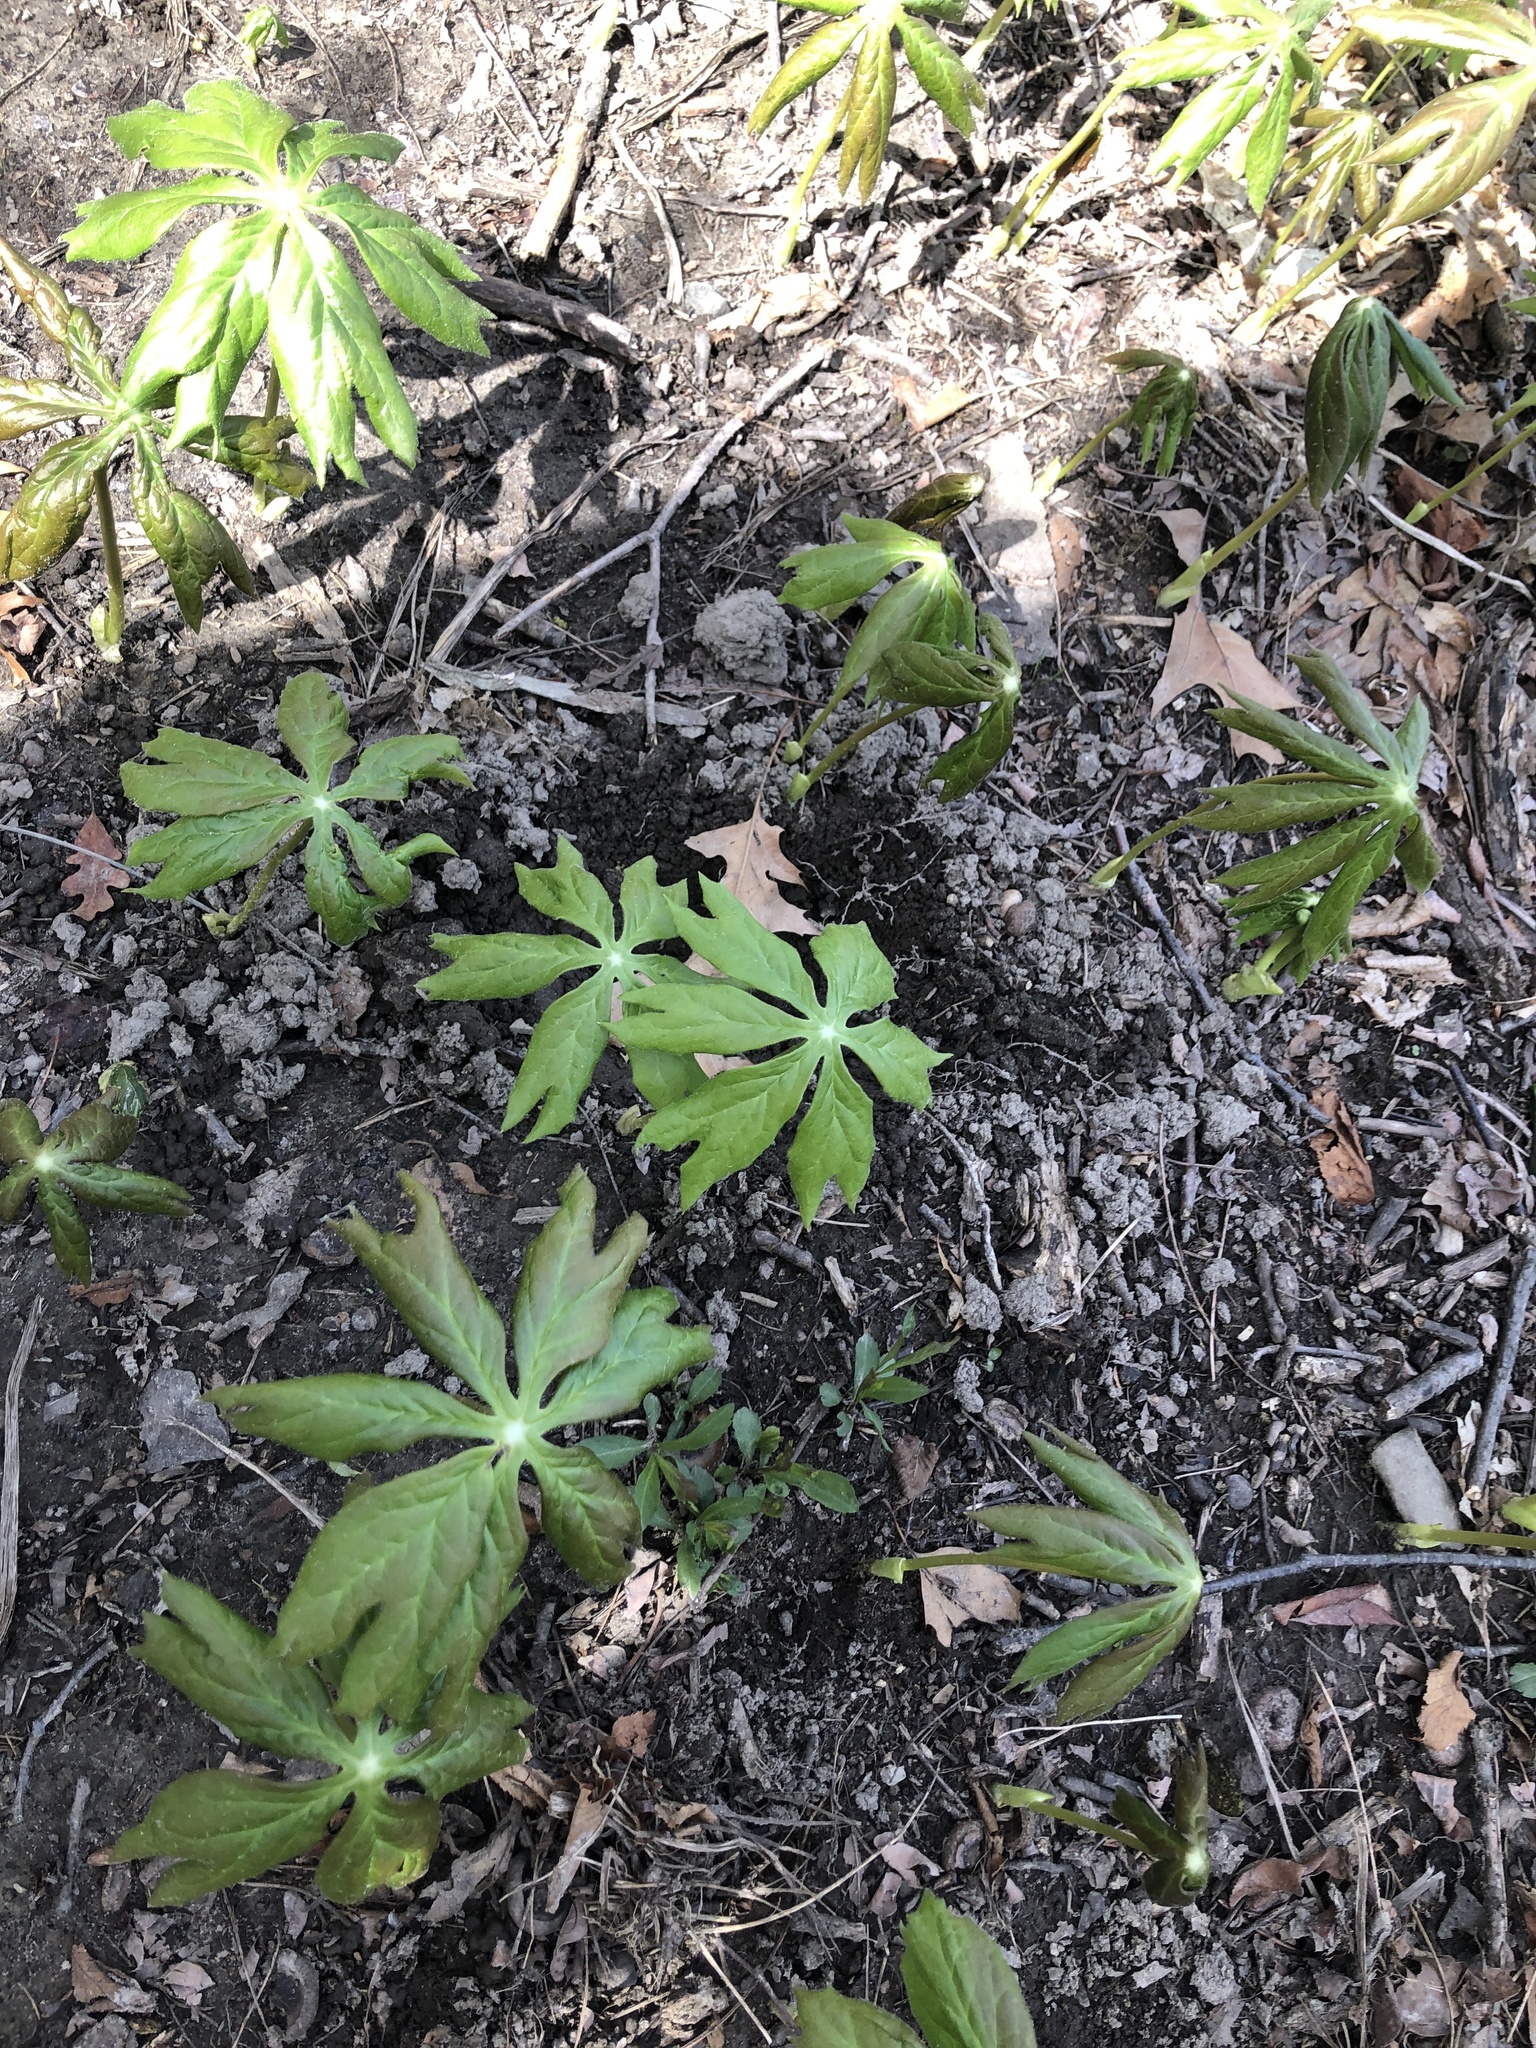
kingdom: Plantae
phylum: Tracheophyta
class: Magnoliopsida
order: Ranunculales
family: Berberidaceae
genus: Podophyllum
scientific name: Podophyllum peltatum
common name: Wild mandrake
